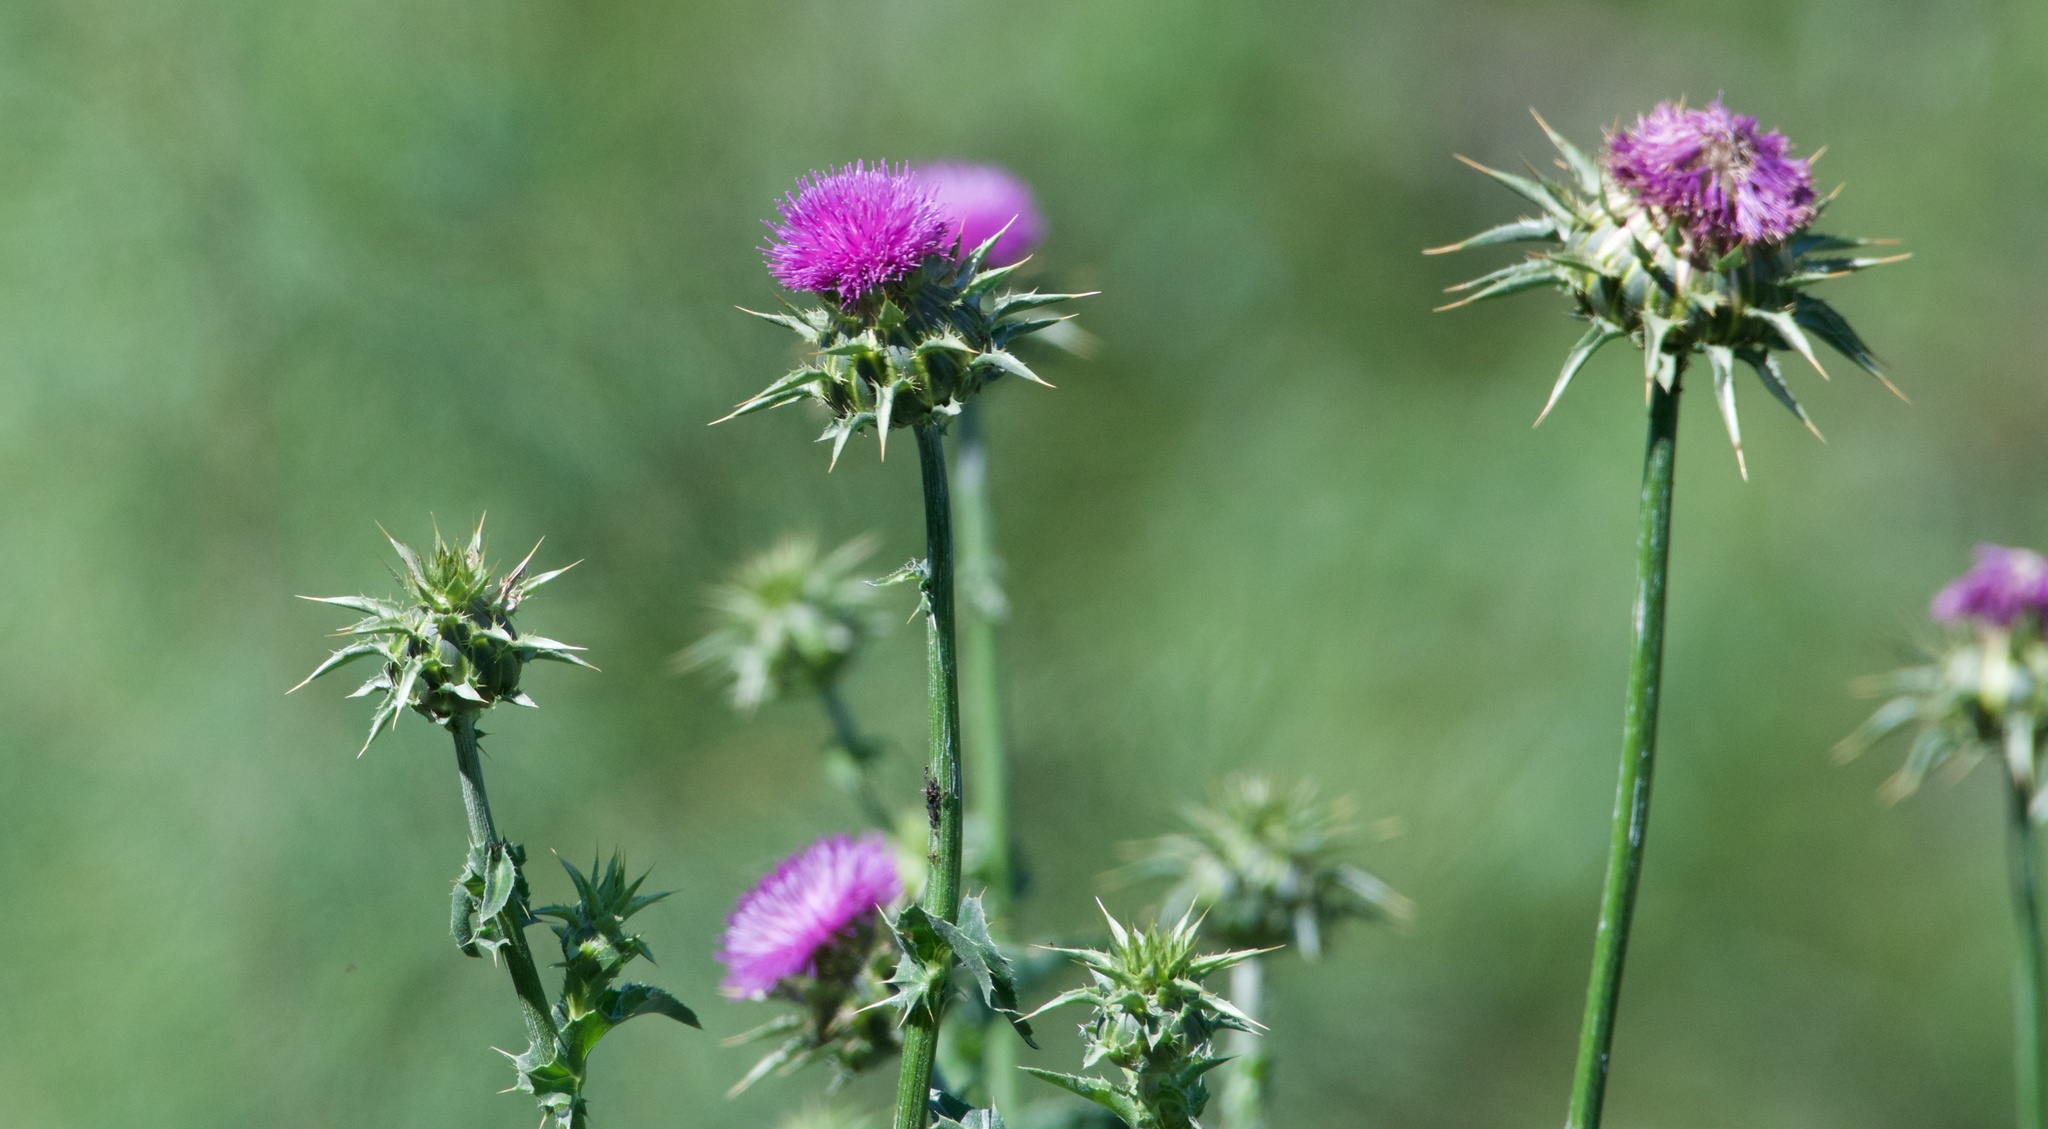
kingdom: Plantae
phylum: Tracheophyta
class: Magnoliopsida
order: Asterales
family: Asteraceae
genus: Silybum
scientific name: Silybum marianum
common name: Milk thistle
